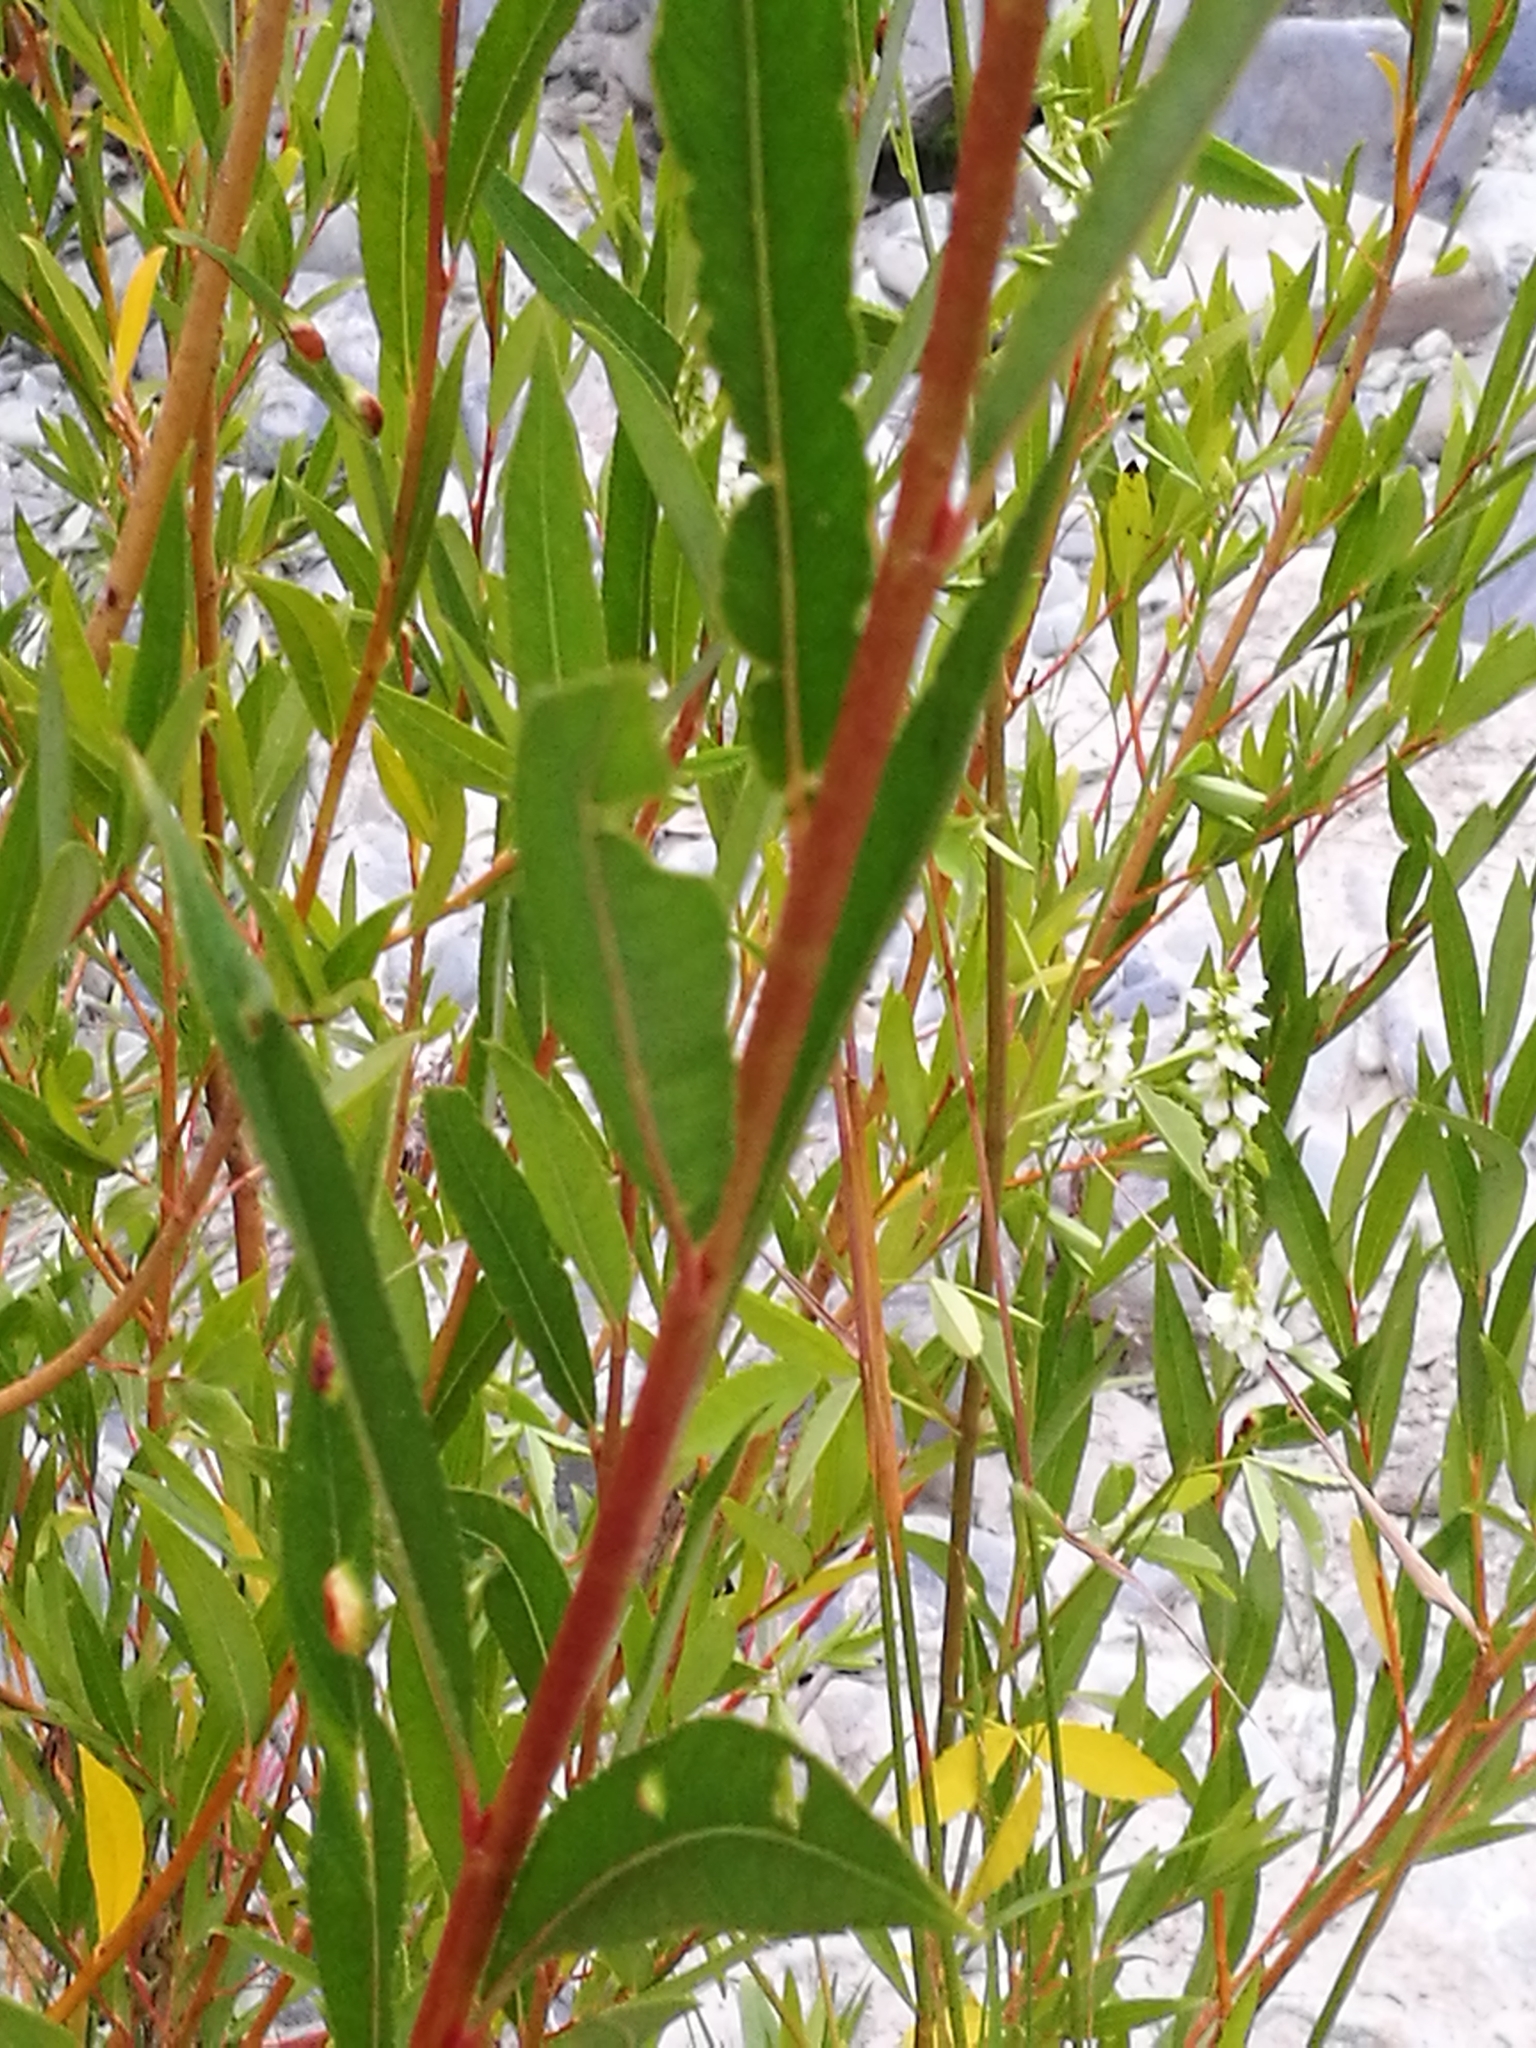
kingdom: Plantae
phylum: Tracheophyta
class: Magnoliopsida
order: Malpighiales
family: Salicaceae
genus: Salix
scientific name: Salix fragilis
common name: Crack willow
